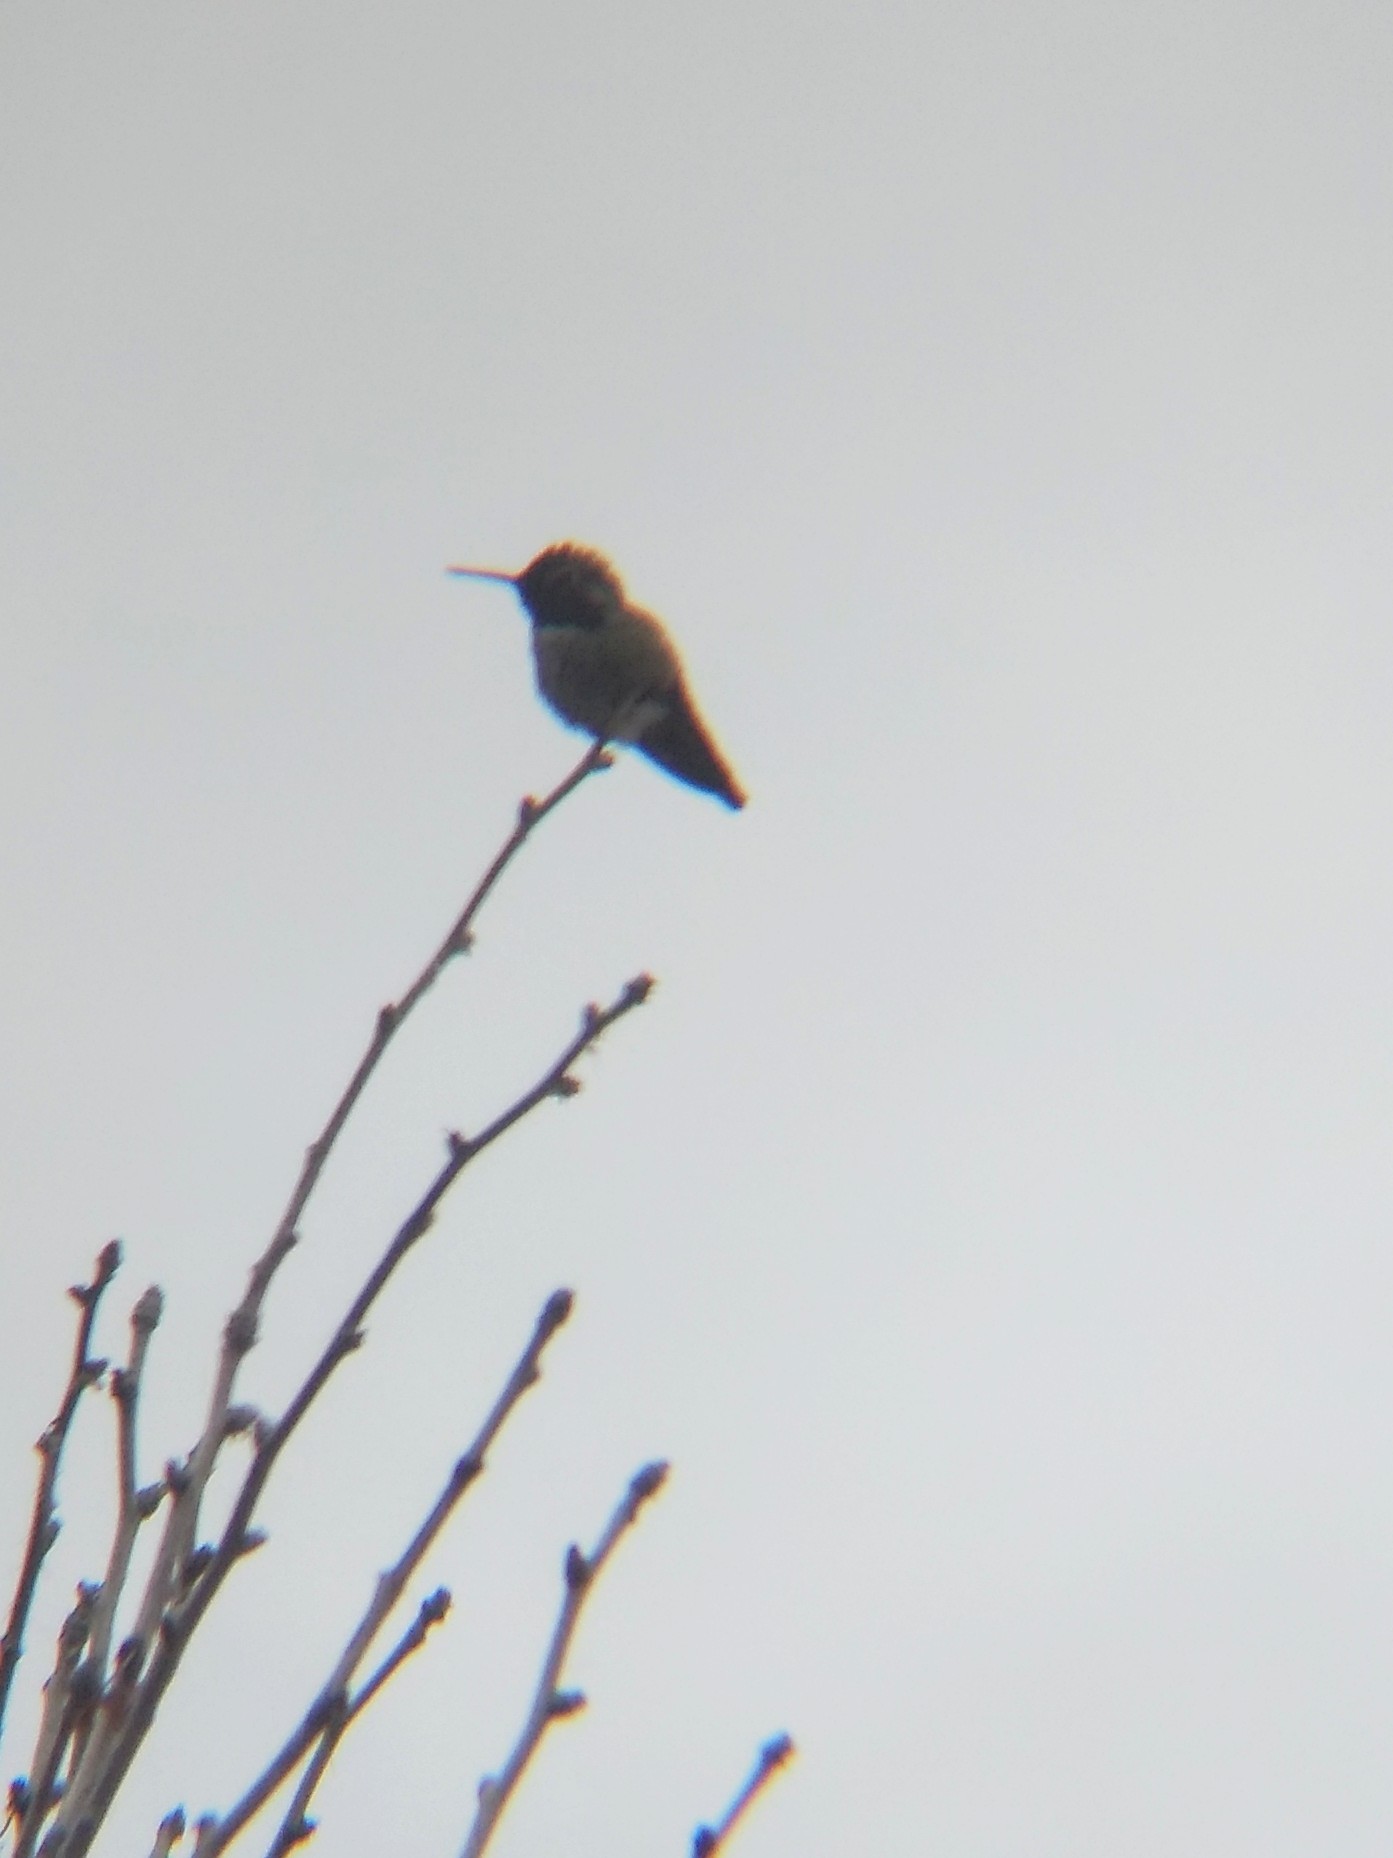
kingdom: Animalia
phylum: Chordata
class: Aves
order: Apodiformes
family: Trochilidae
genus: Calypte
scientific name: Calypte anna
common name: Anna's hummingbird
